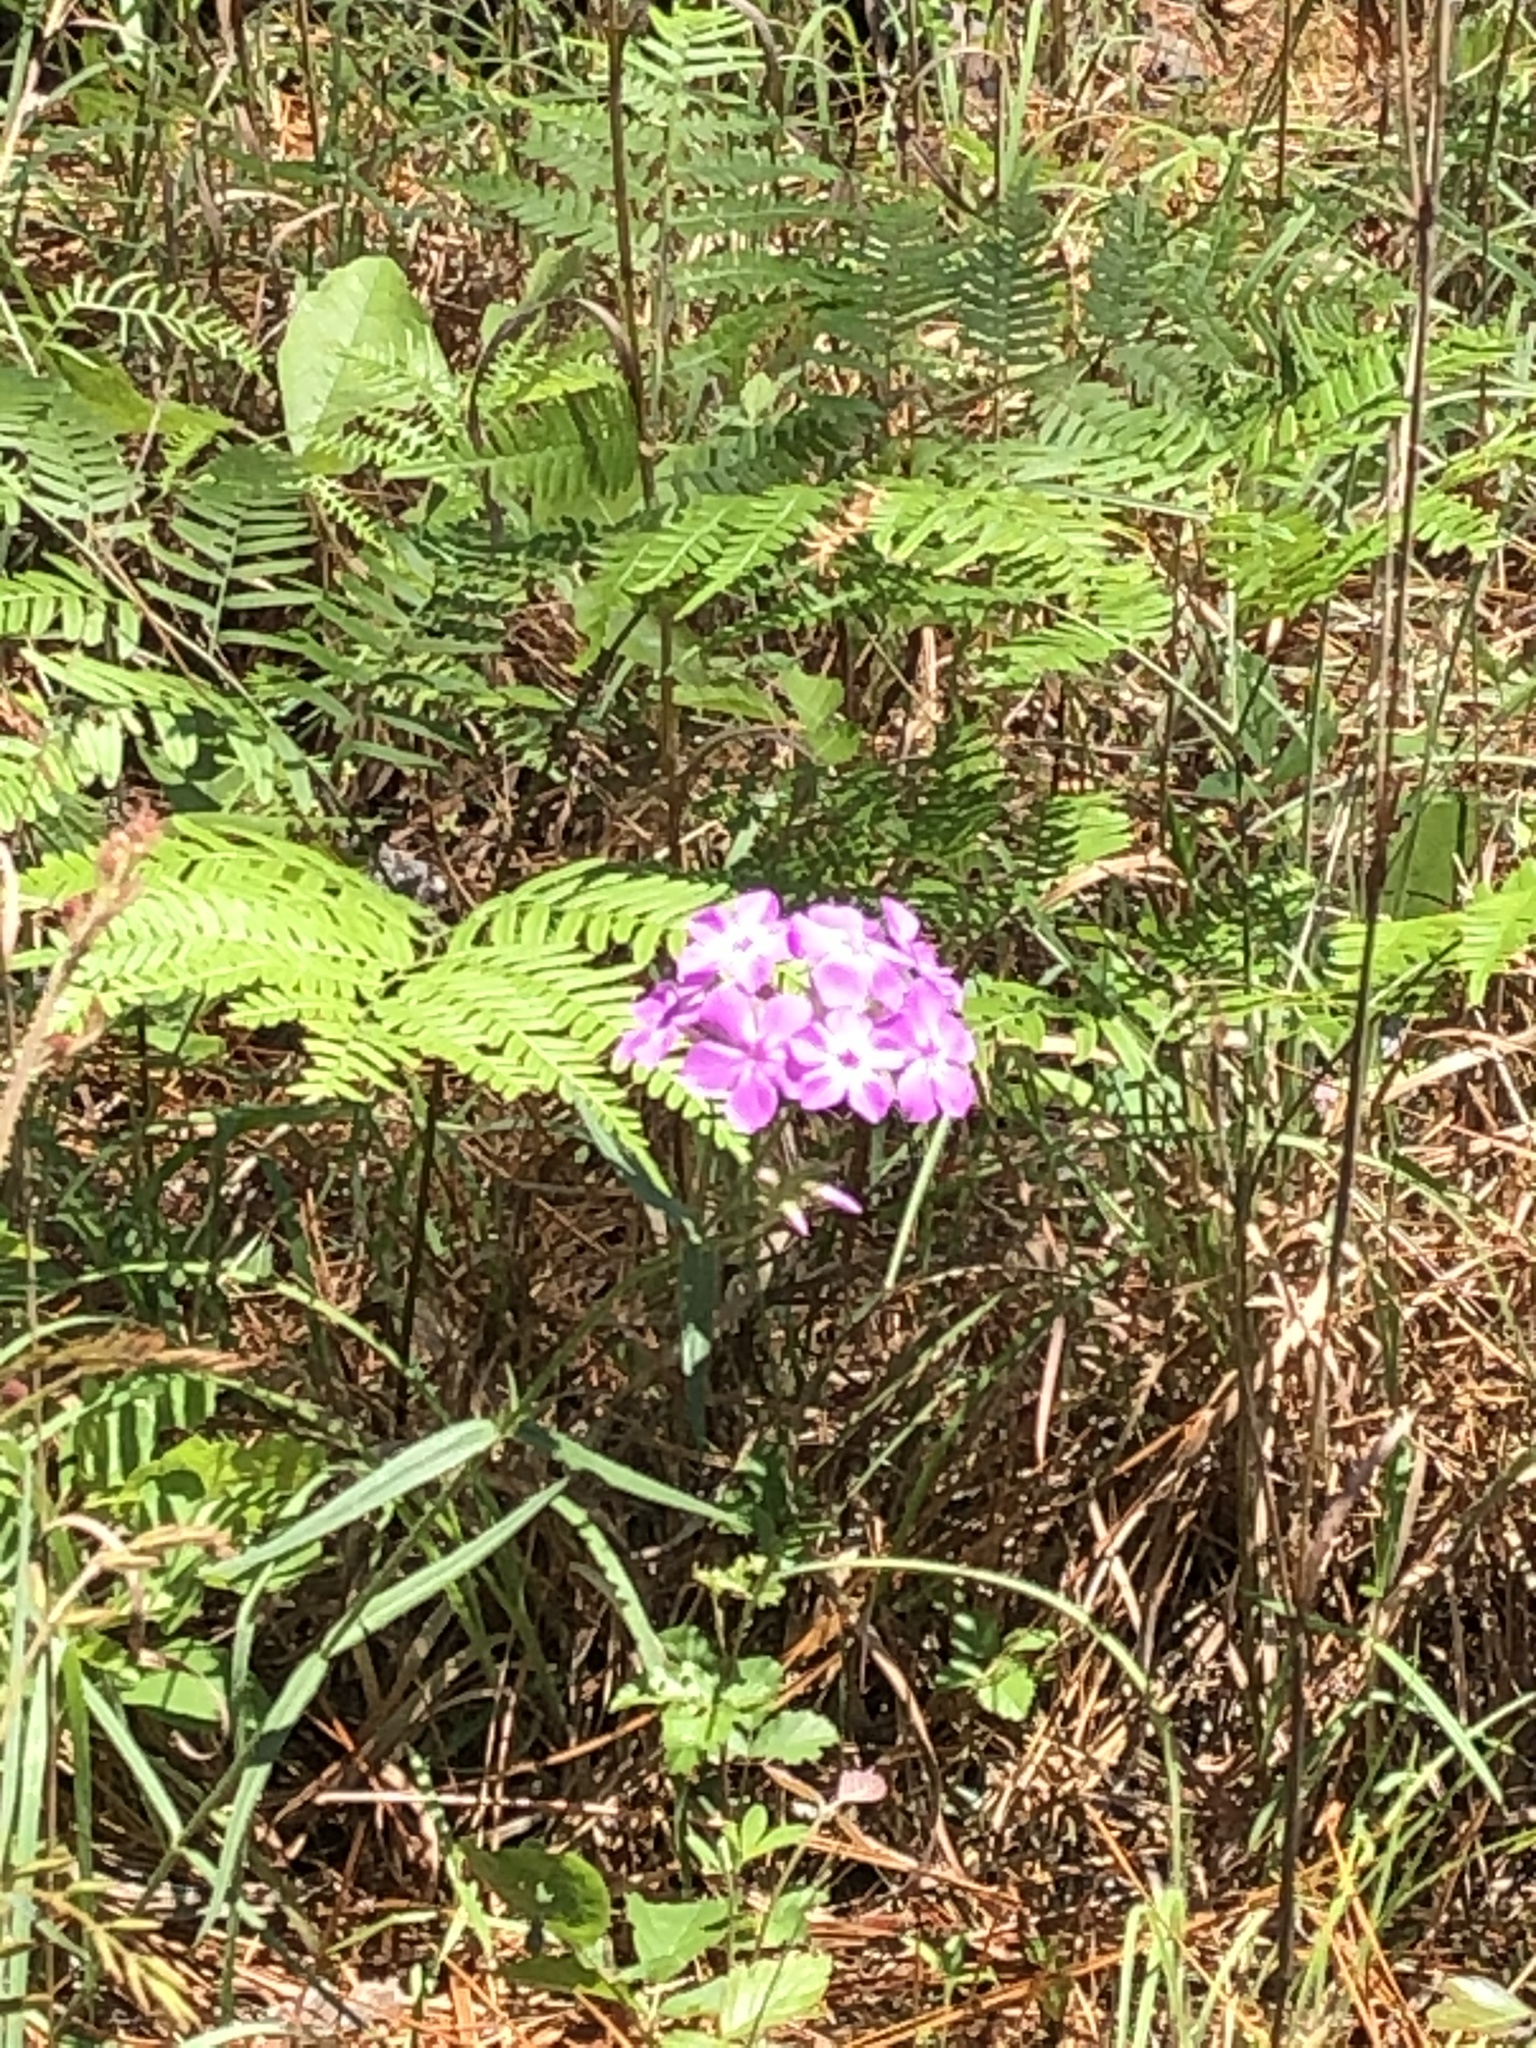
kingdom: Plantae
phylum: Tracheophyta
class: Magnoliopsida
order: Ericales
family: Polemoniaceae
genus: Phlox
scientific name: Phlox pilosa
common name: Prairie phlox
